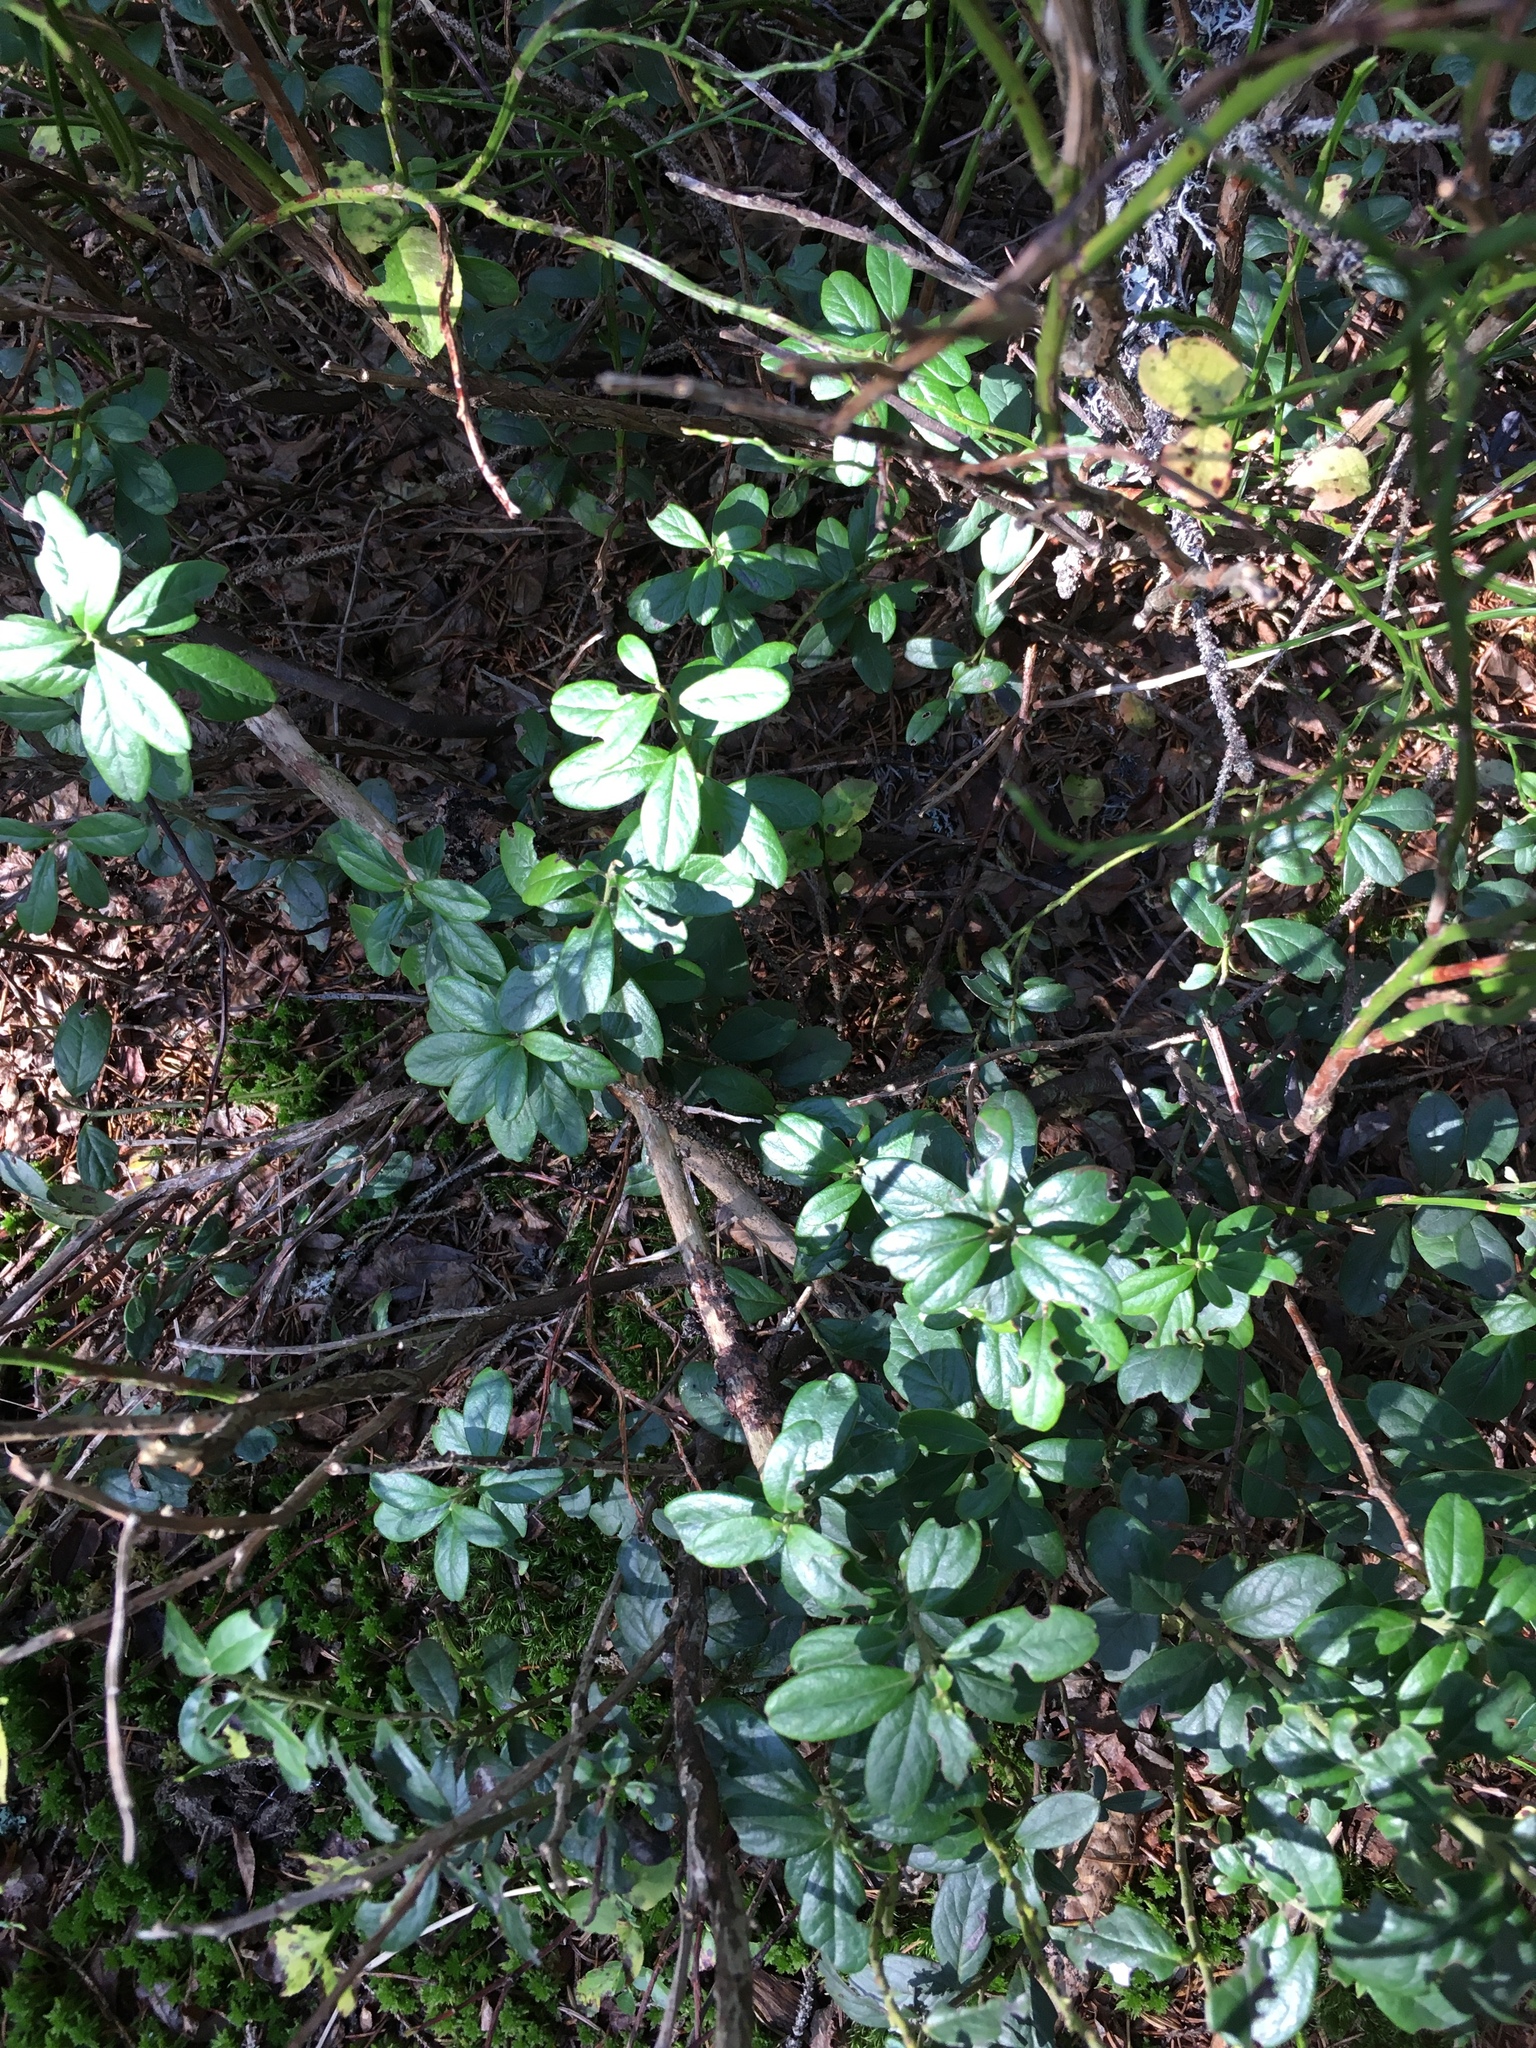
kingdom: Plantae
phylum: Tracheophyta
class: Magnoliopsida
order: Ericales
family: Ericaceae
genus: Vaccinium
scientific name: Vaccinium vitis-idaea
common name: Cowberry
